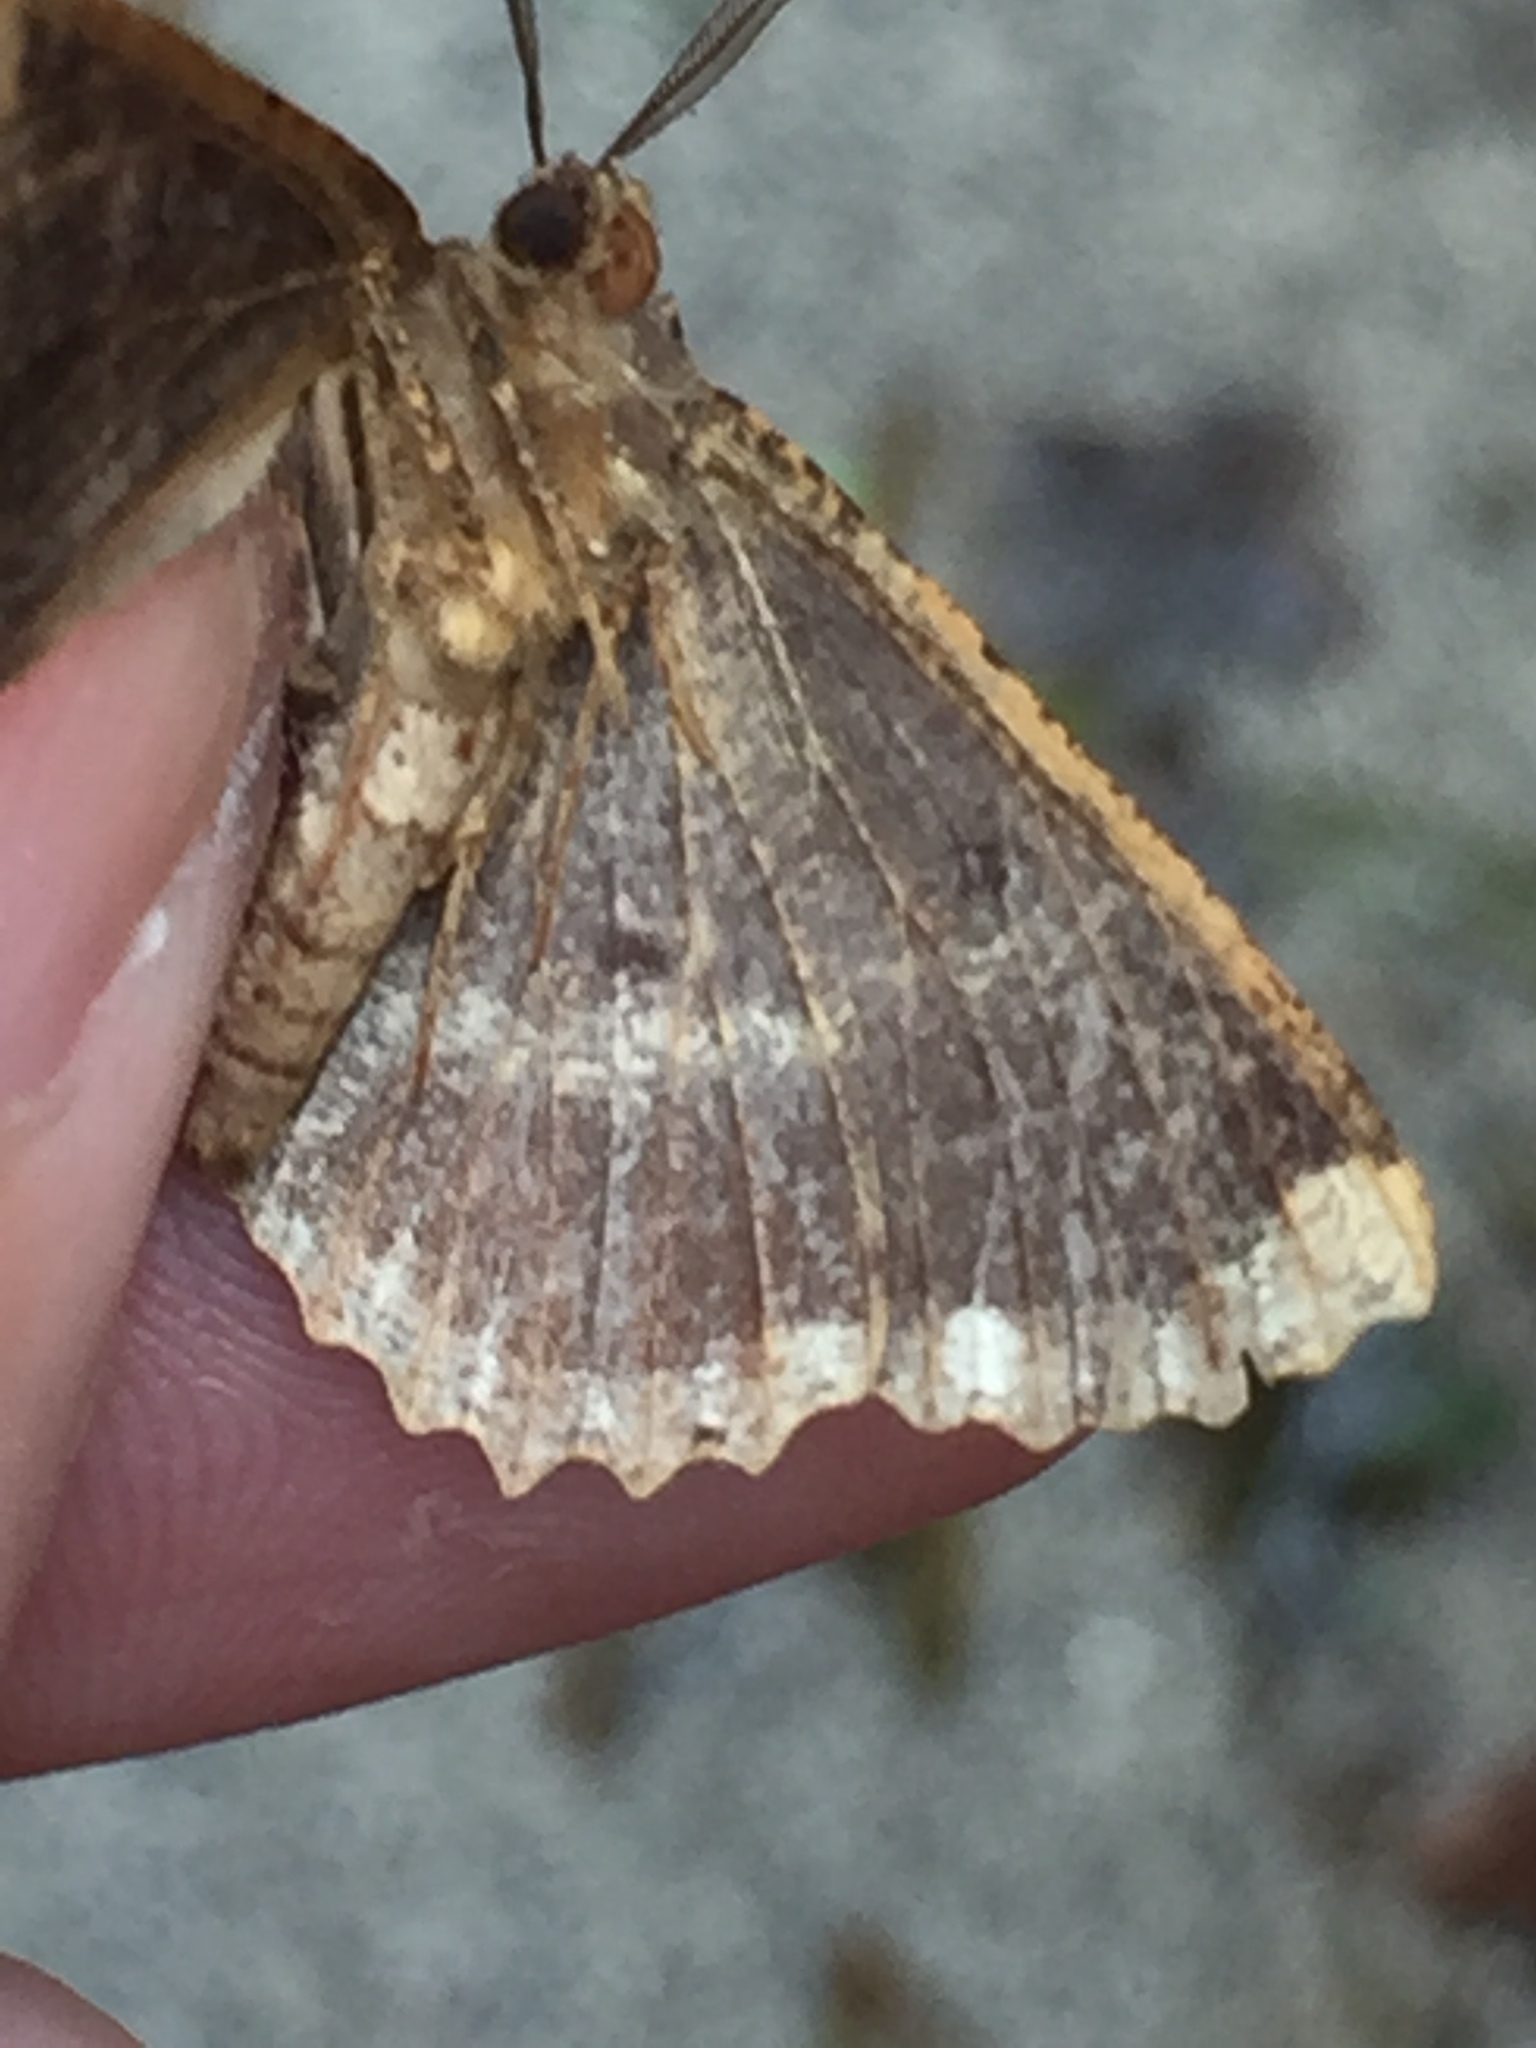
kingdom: Animalia
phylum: Arthropoda
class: Insecta
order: Lepidoptera
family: Geometridae
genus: Gellonia
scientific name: Gellonia dejectaria
